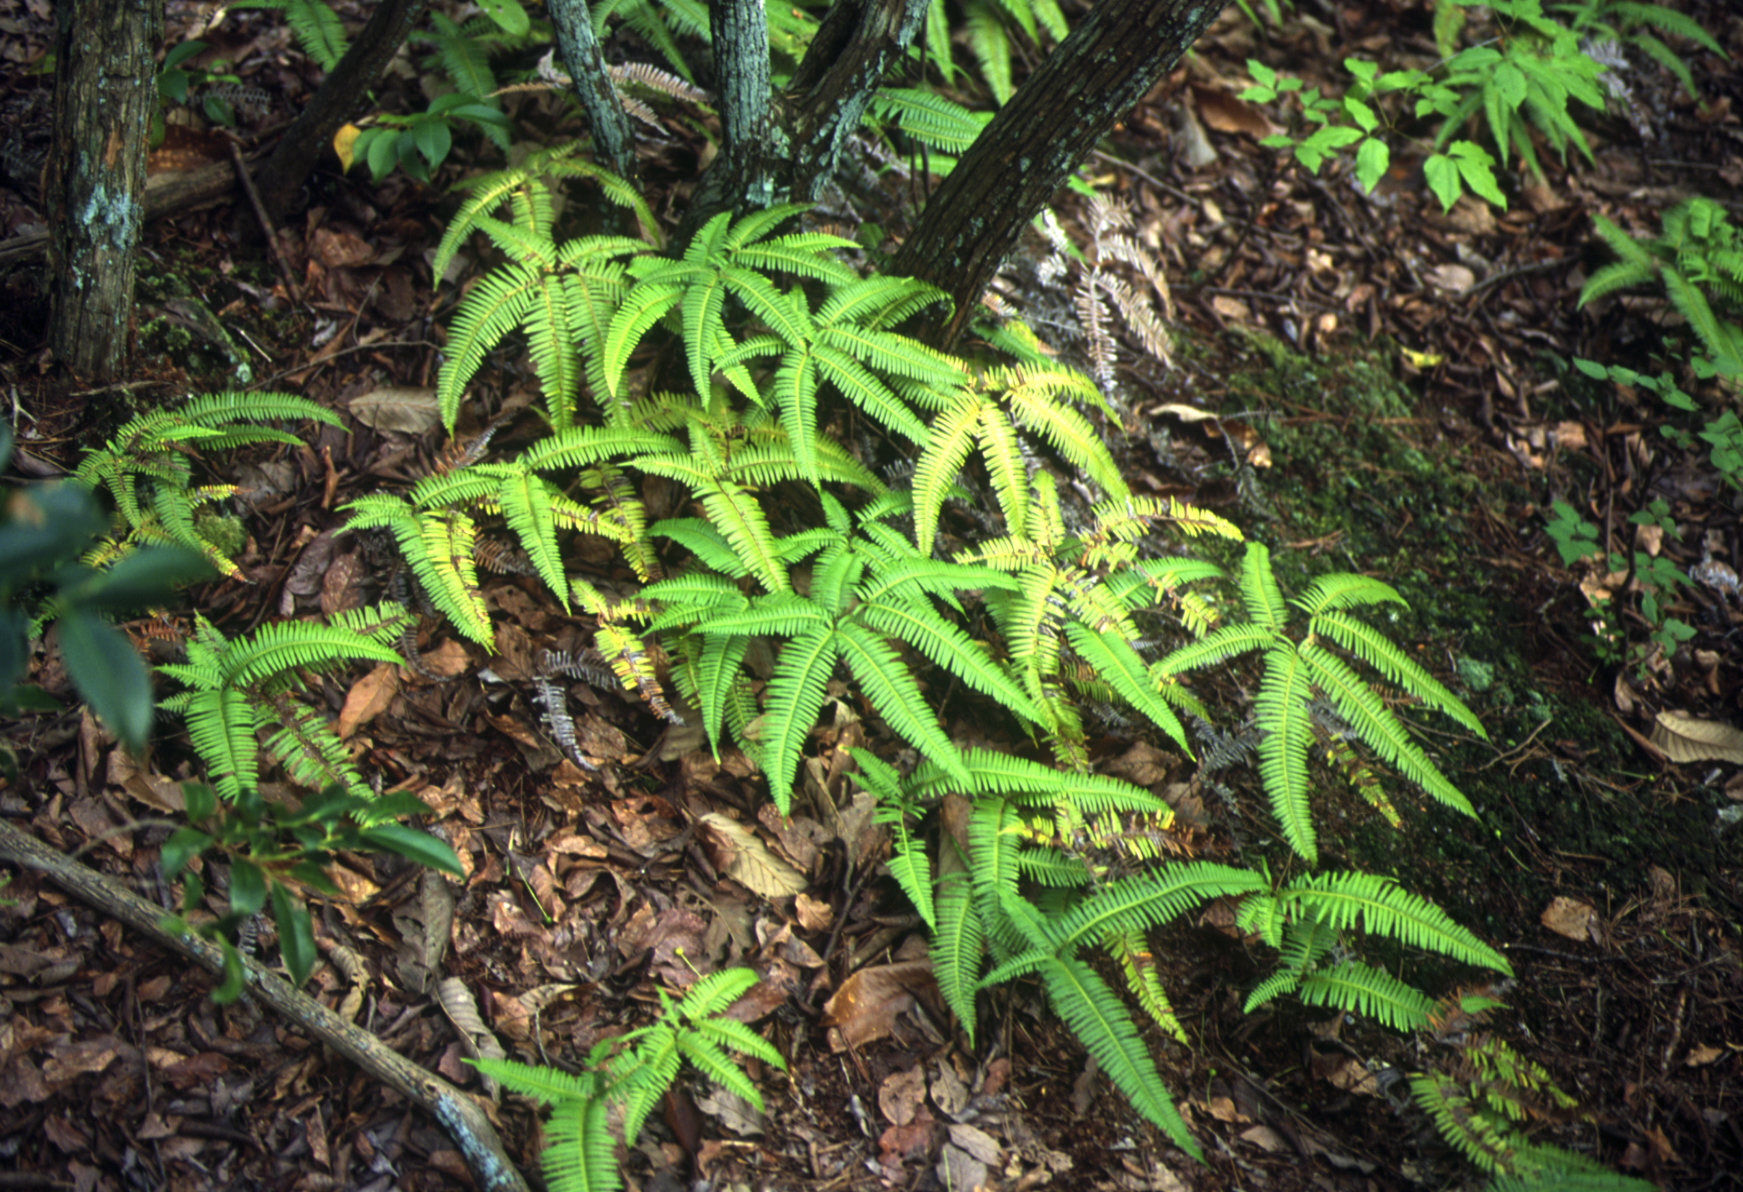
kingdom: Plantae
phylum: Tracheophyta
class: Polypodiopsida
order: Gleicheniales
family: Gleicheniaceae
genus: Dicranopteris
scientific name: Dicranopteris linearis
